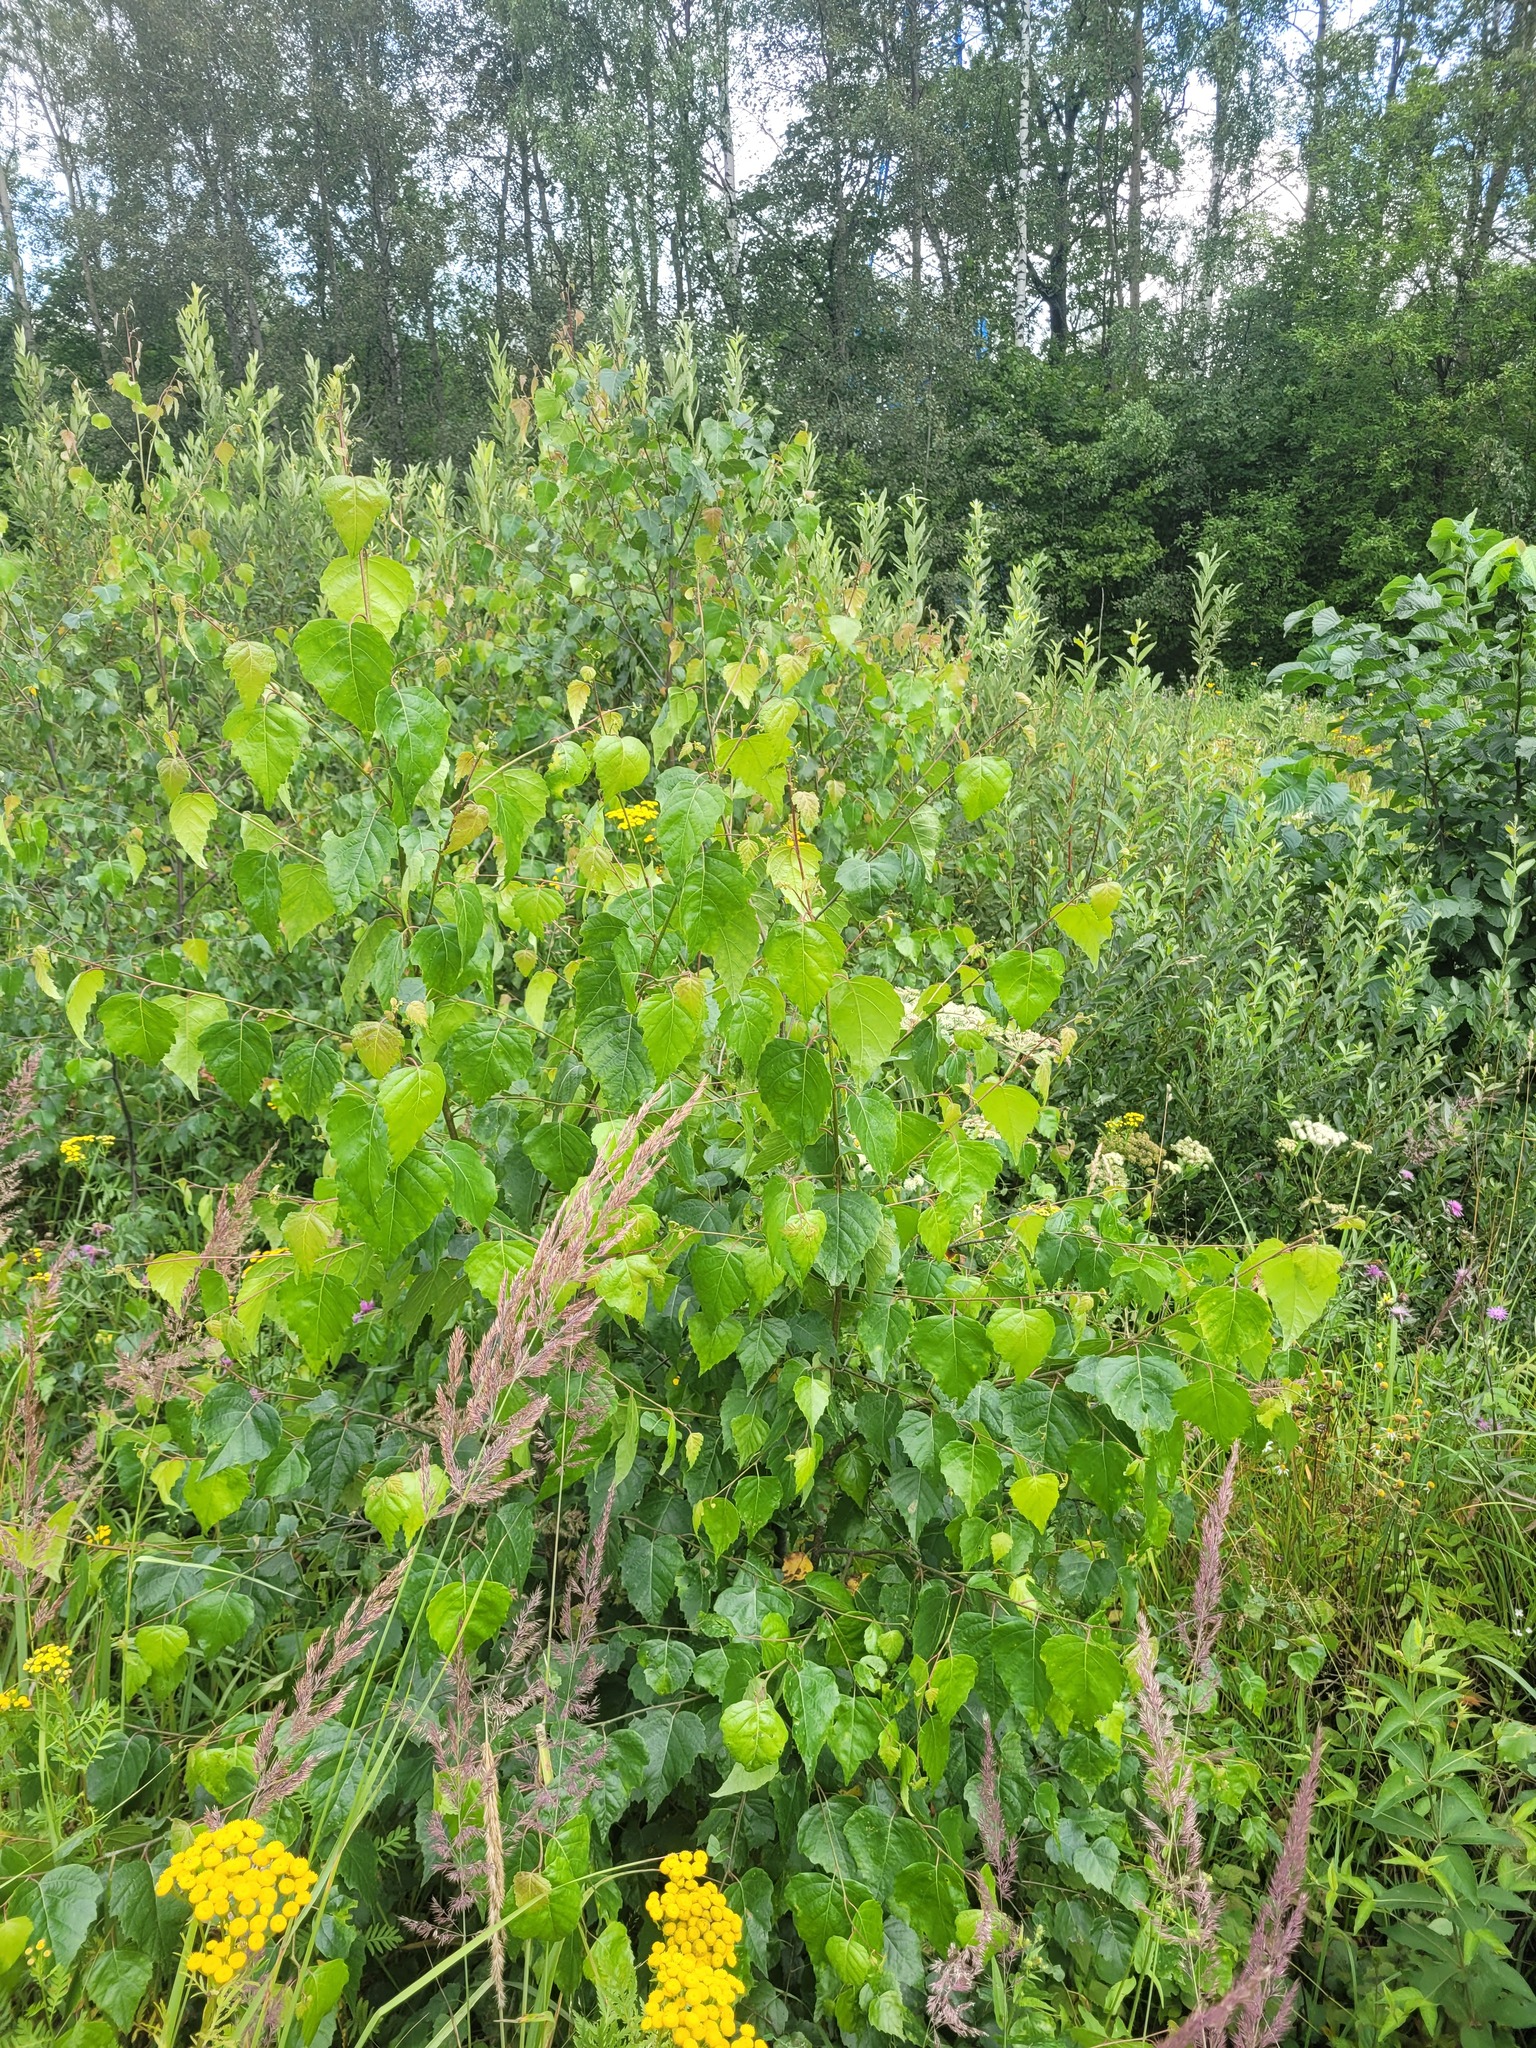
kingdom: Plantae
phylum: Tracheophyta
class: Magnoliopsida
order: Fagales
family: Betulaceae
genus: Betula
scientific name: Betula pendula
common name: Silver birch
